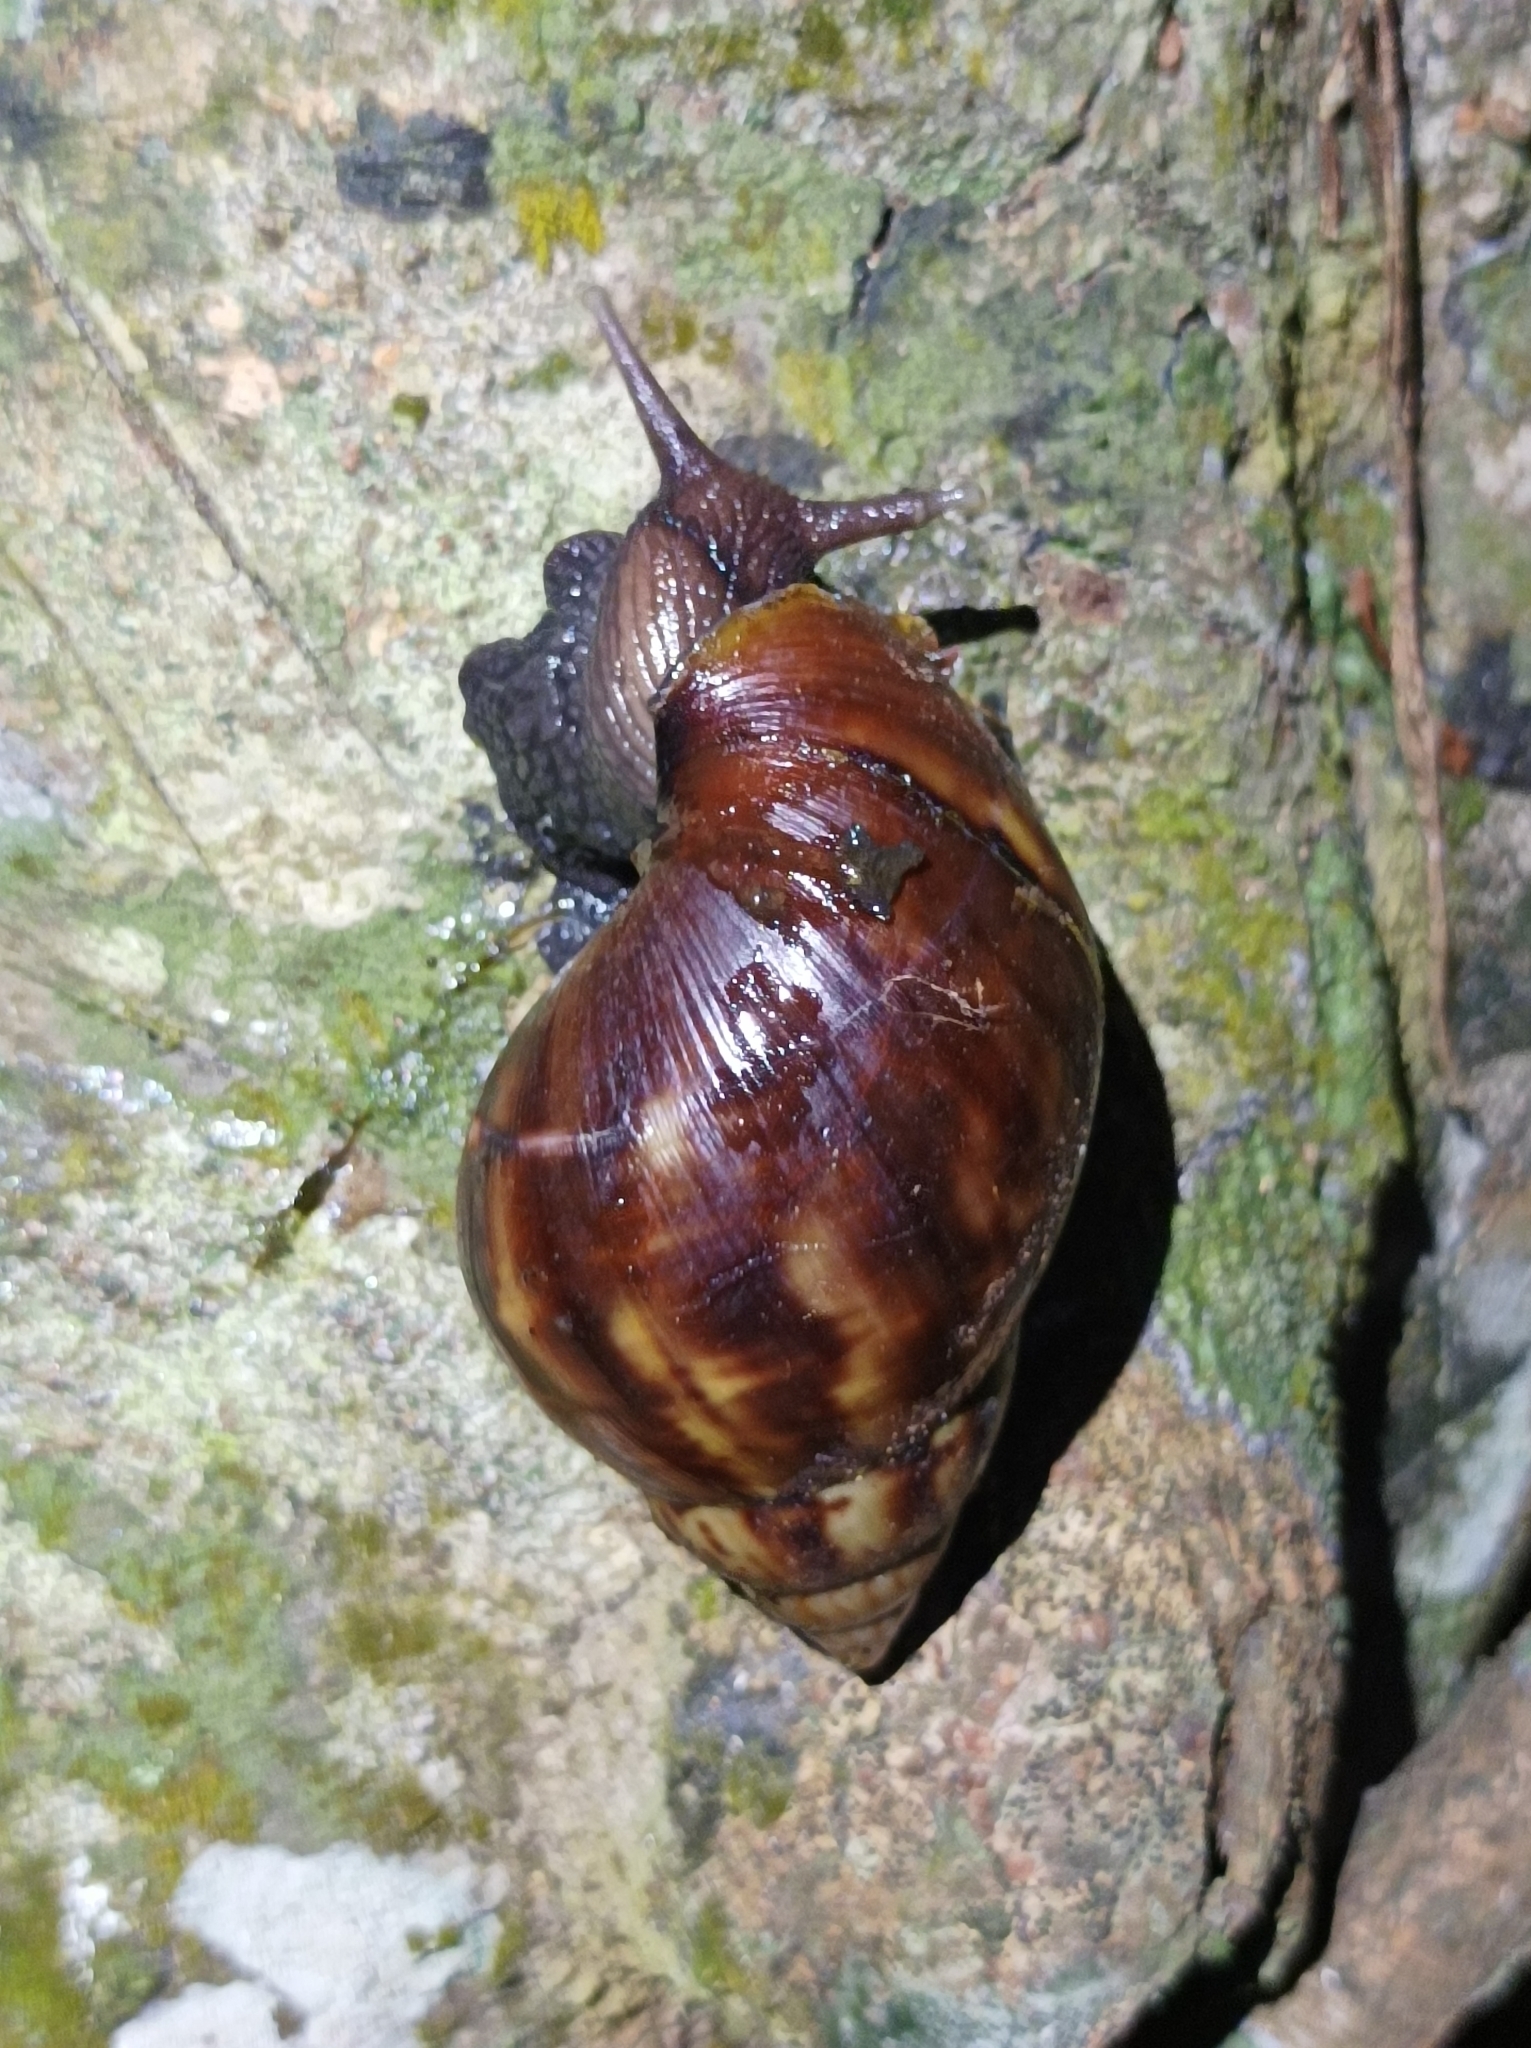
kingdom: Animalia
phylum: Mollusca
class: Gastropoda
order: Stylommatophora
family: Achatinidae
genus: Lissachatina
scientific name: Lissachatina fulica
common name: Giant african snail
